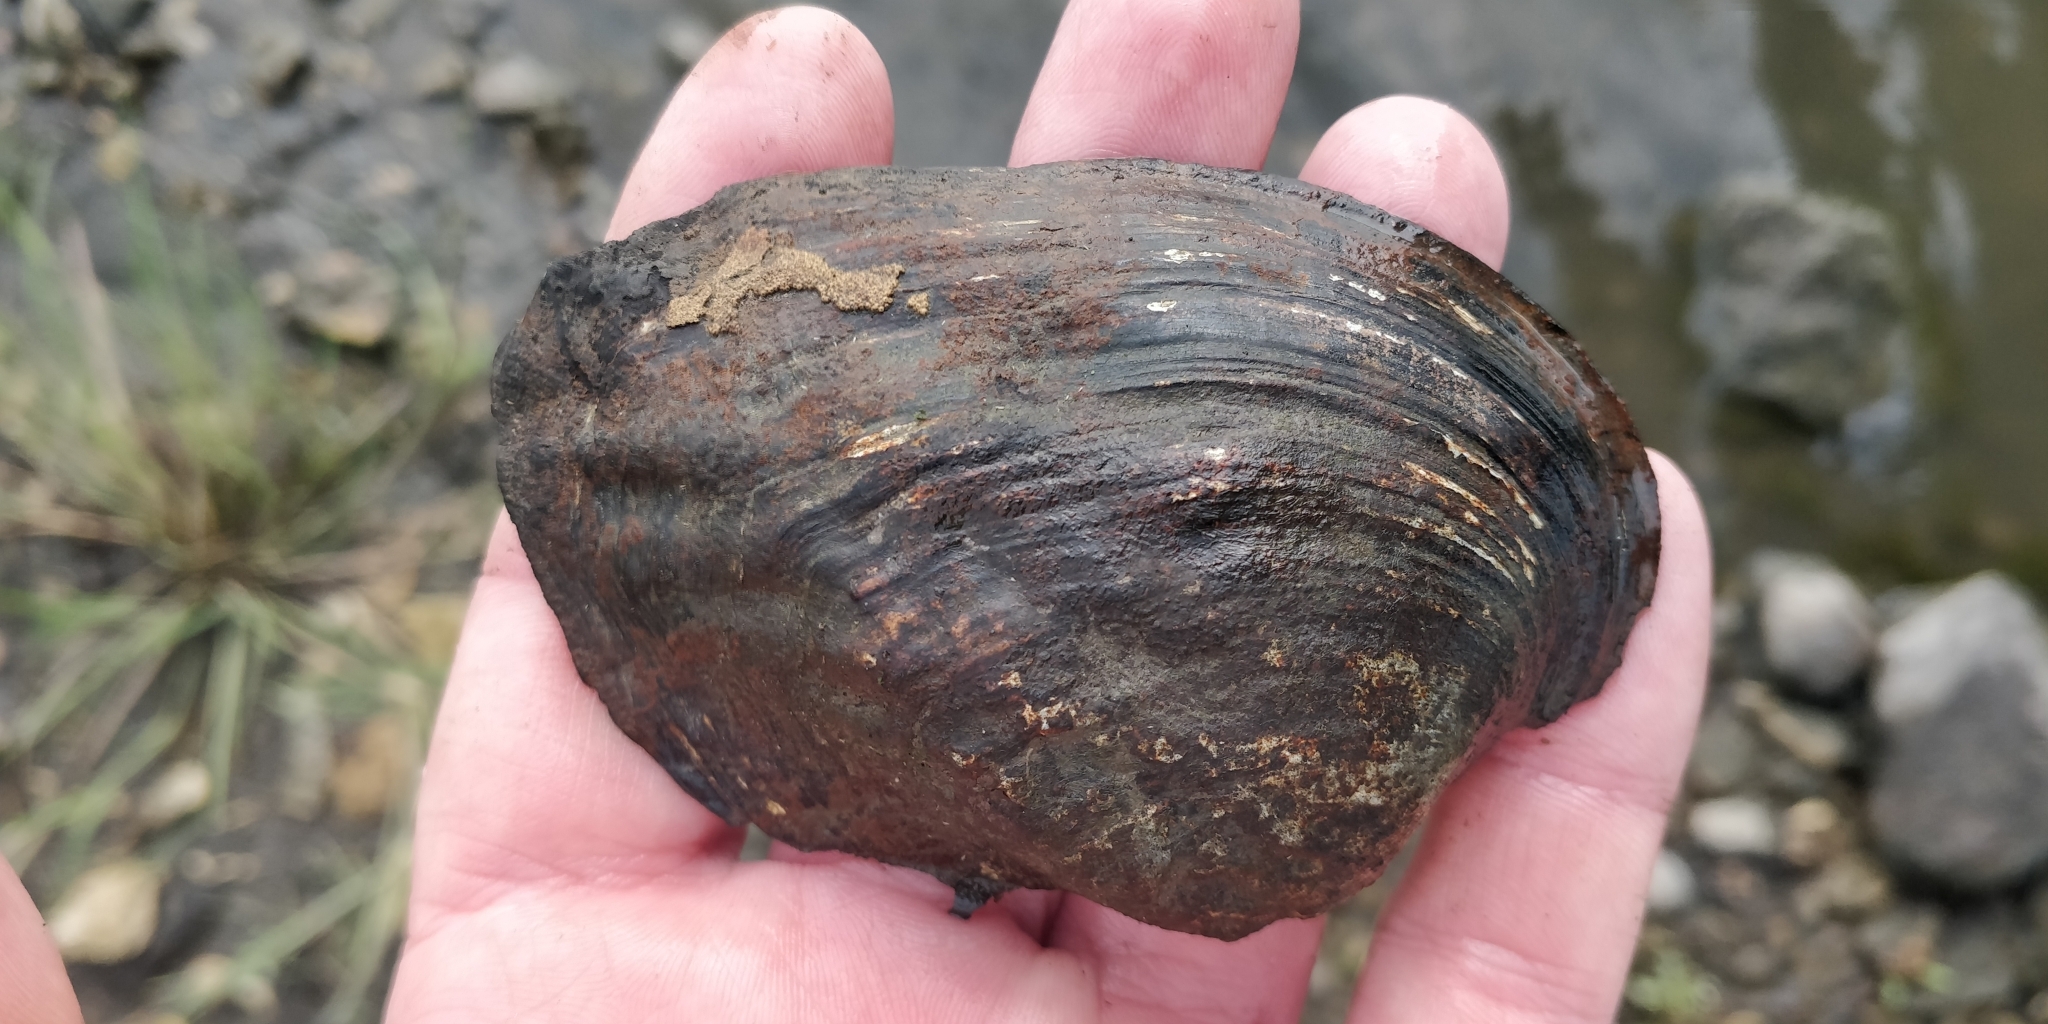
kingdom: Animalia
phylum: Mollusca
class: Bivalvia
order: Unionida
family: Unionidae
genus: Arcidens
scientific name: Arcidens confragosus
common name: Rock pocketbook
